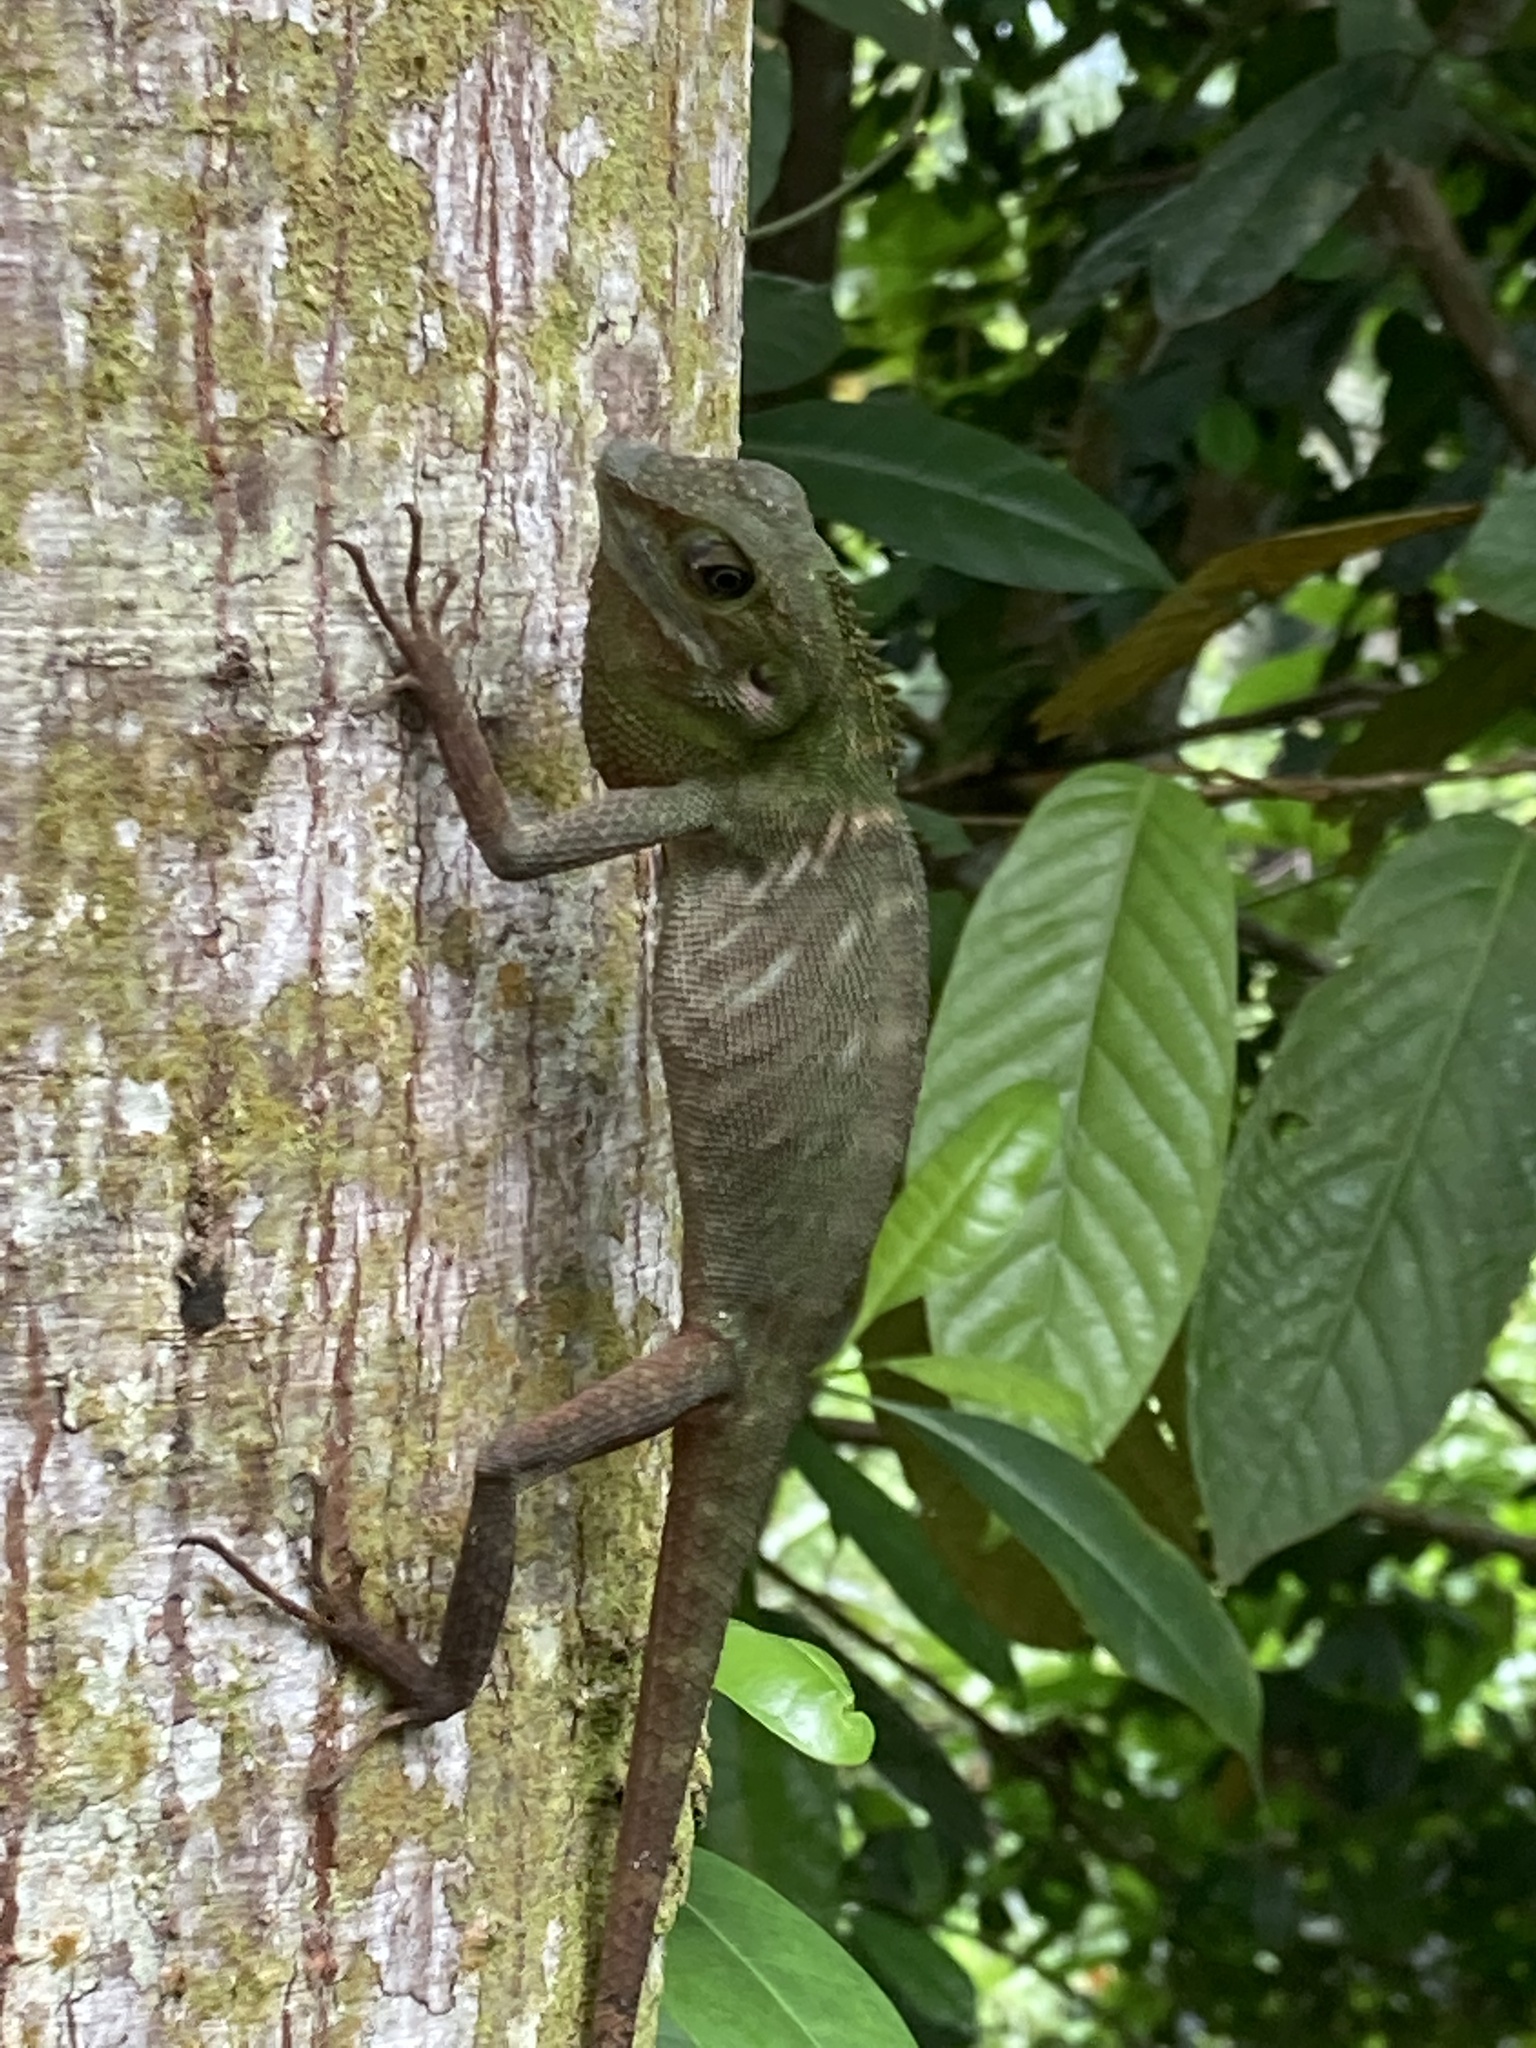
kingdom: Animalia
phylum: Chordata
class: Squamata
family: Agamidae
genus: Bronchocela
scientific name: Bronchocela cristatella
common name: Green crested lizard
